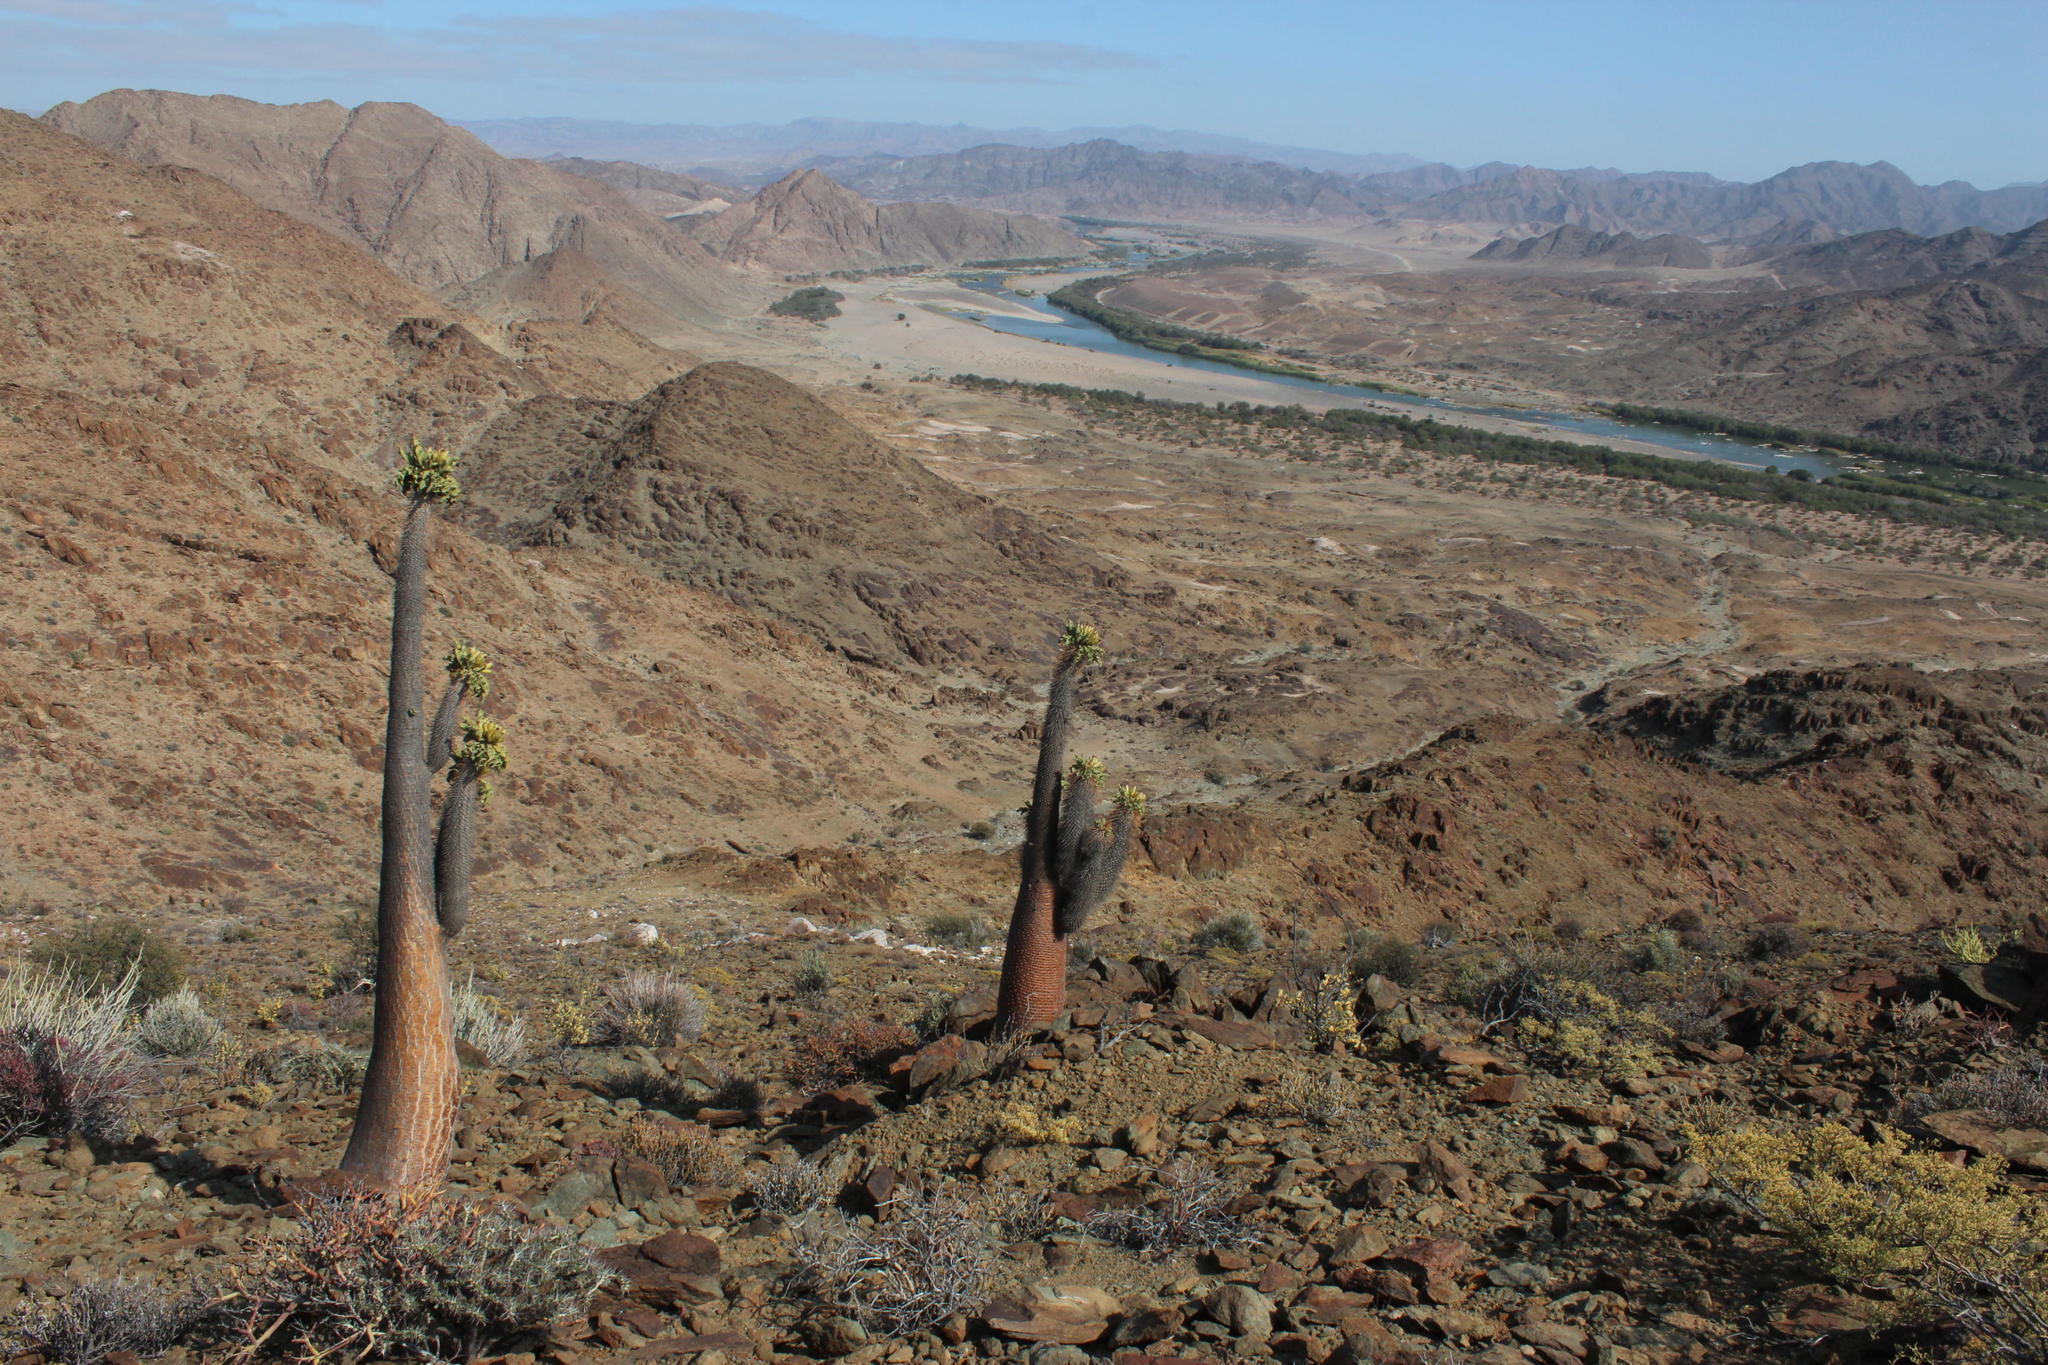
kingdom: Plantae
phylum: Tracheophyta
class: Magnoliopsida
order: Gentianales
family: Apocynaceae
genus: Pachypodium
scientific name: Pachypodium namaquanum
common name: Elephant's trunk
